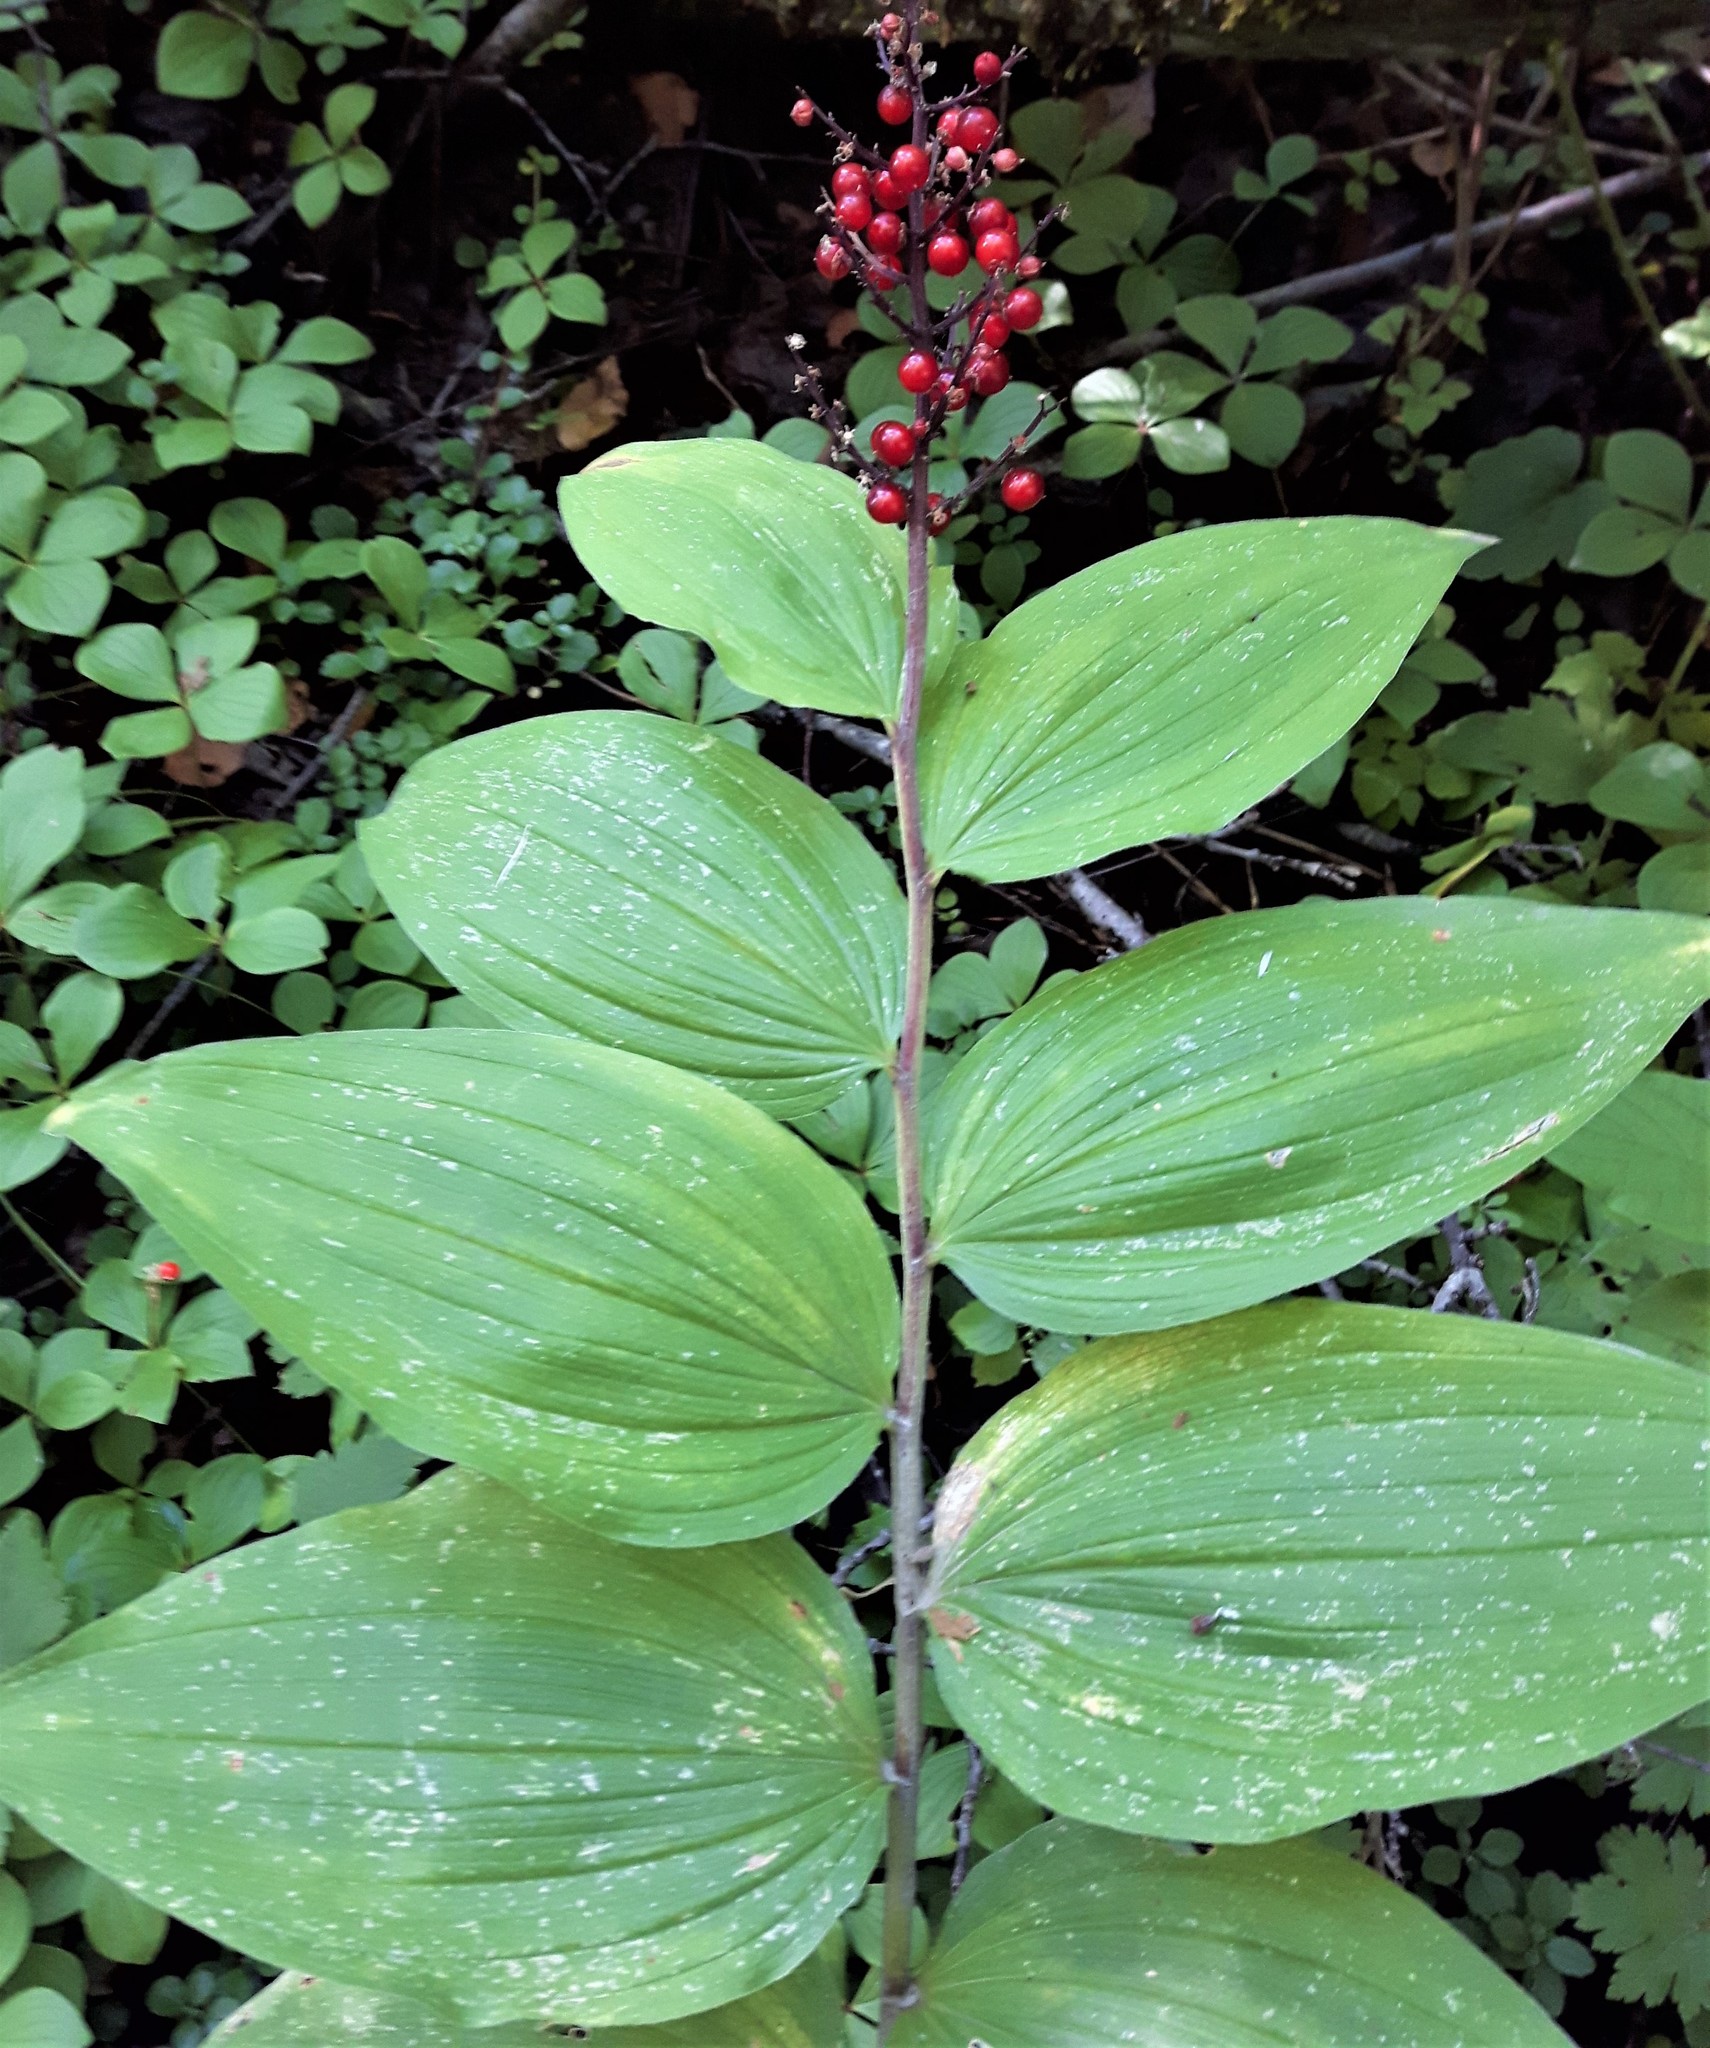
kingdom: Plantae
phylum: Tracheophyta
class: Liliopsida
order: Asparagales
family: Asparagaceae
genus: Maianthemum
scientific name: Maianthemum racemosum
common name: False spikenard
